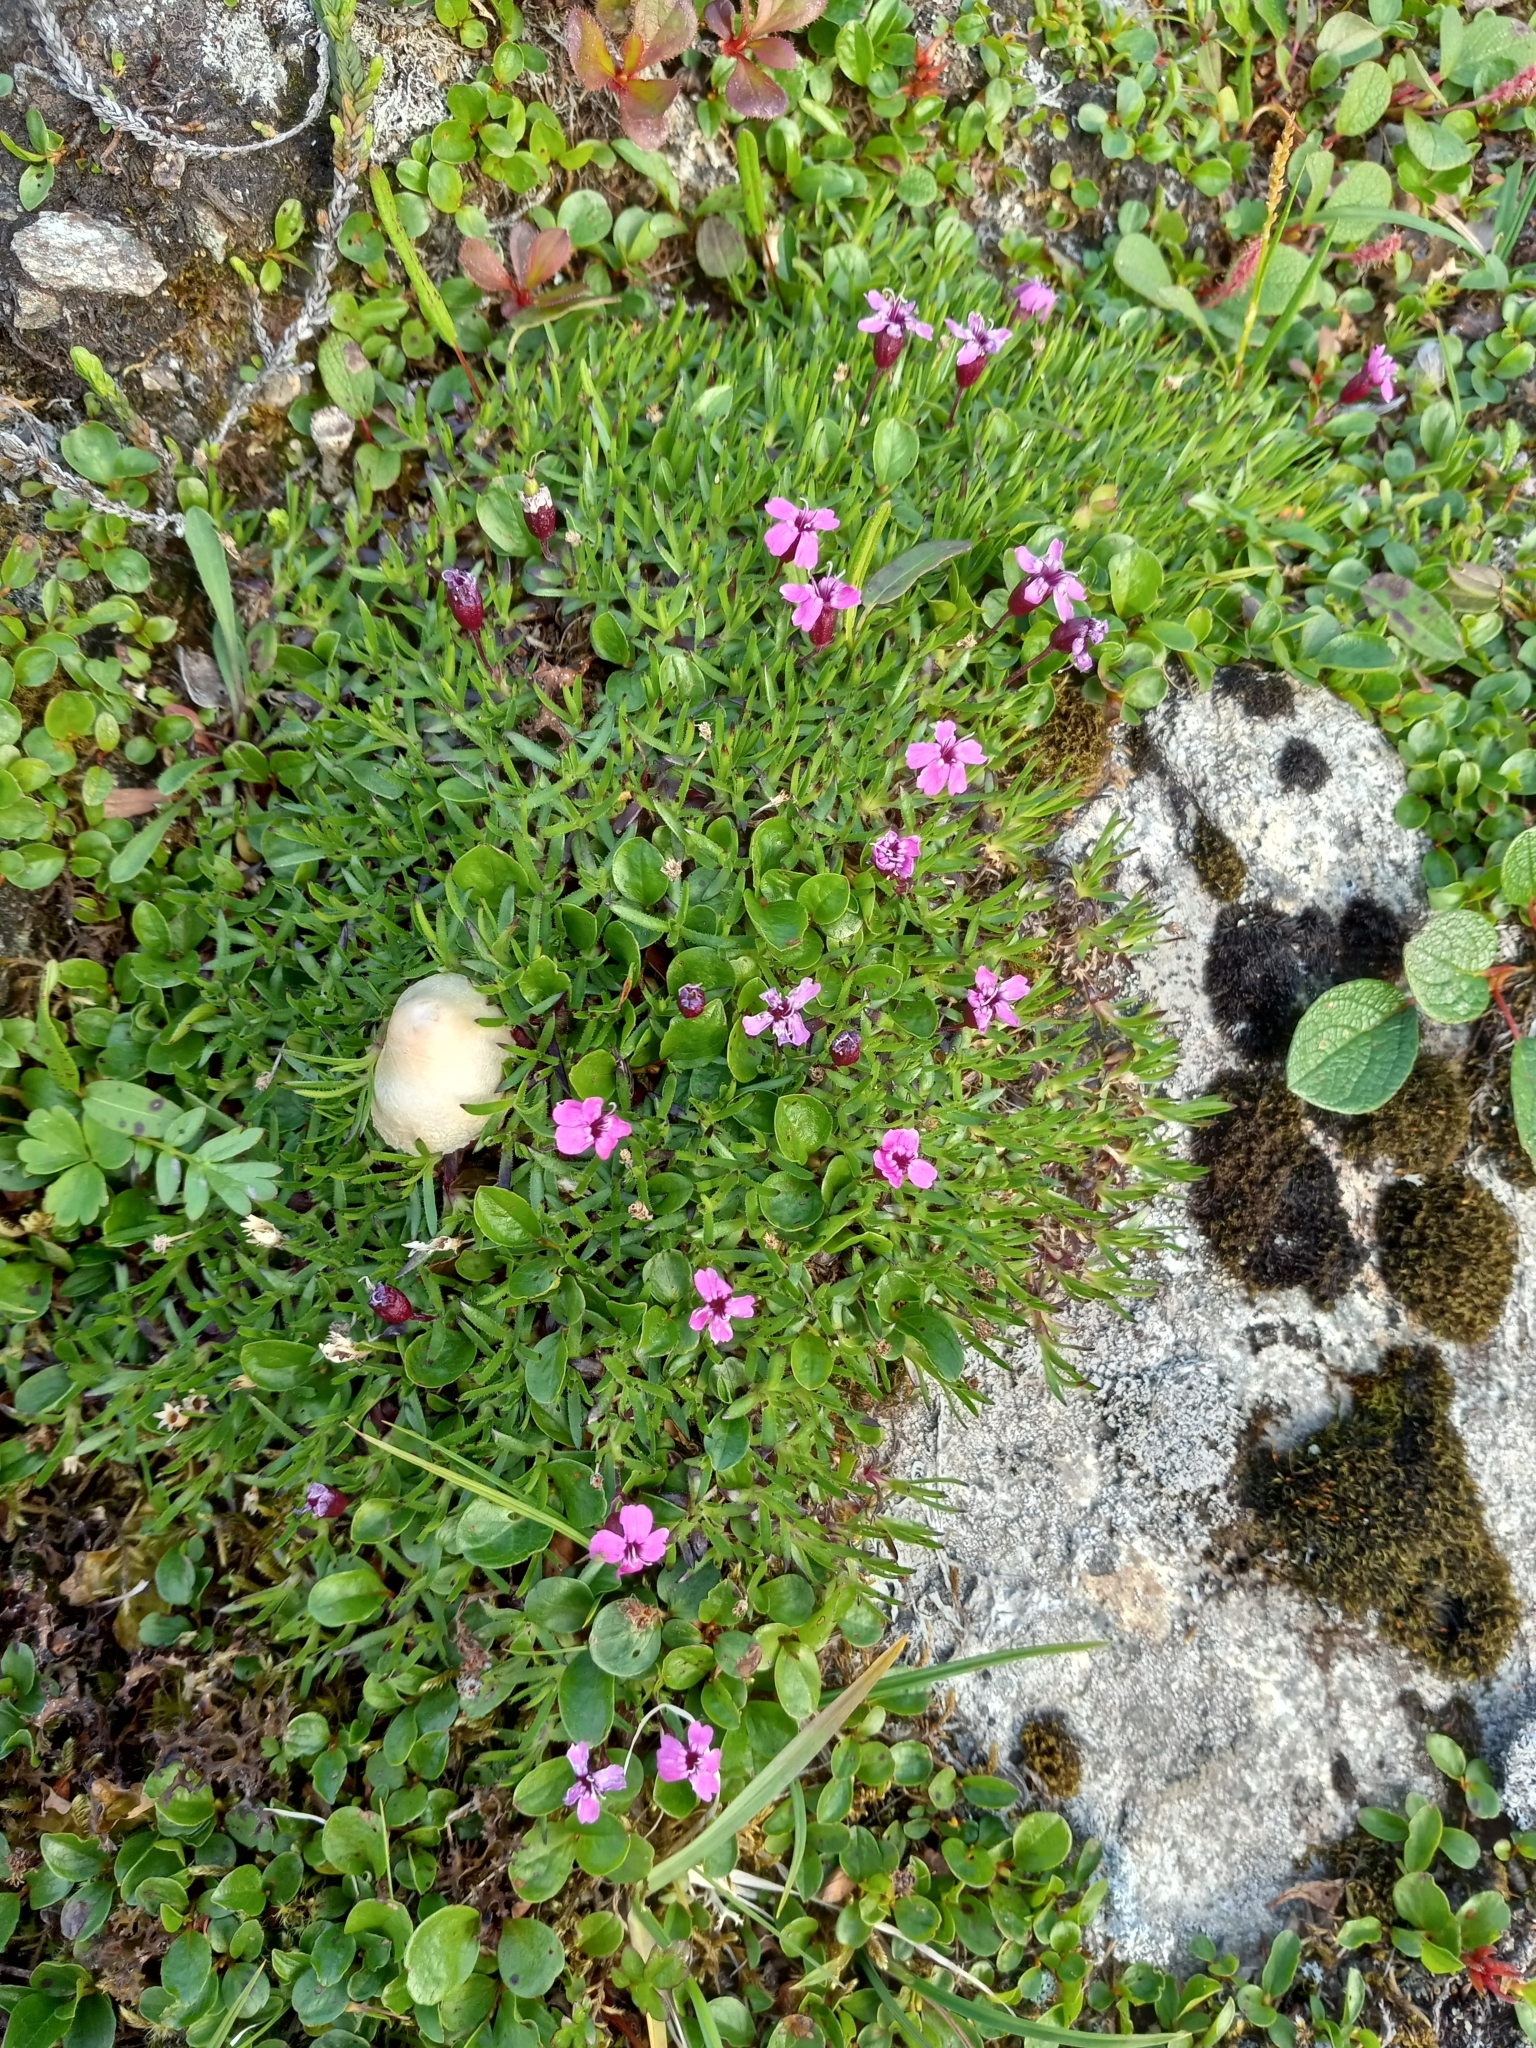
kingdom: Plantae
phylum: Tracheophyta
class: Magnoliopsida
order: Caryophyllales
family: Caryophyllaceae
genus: Silene
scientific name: Silene acaulis
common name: Moss campion
